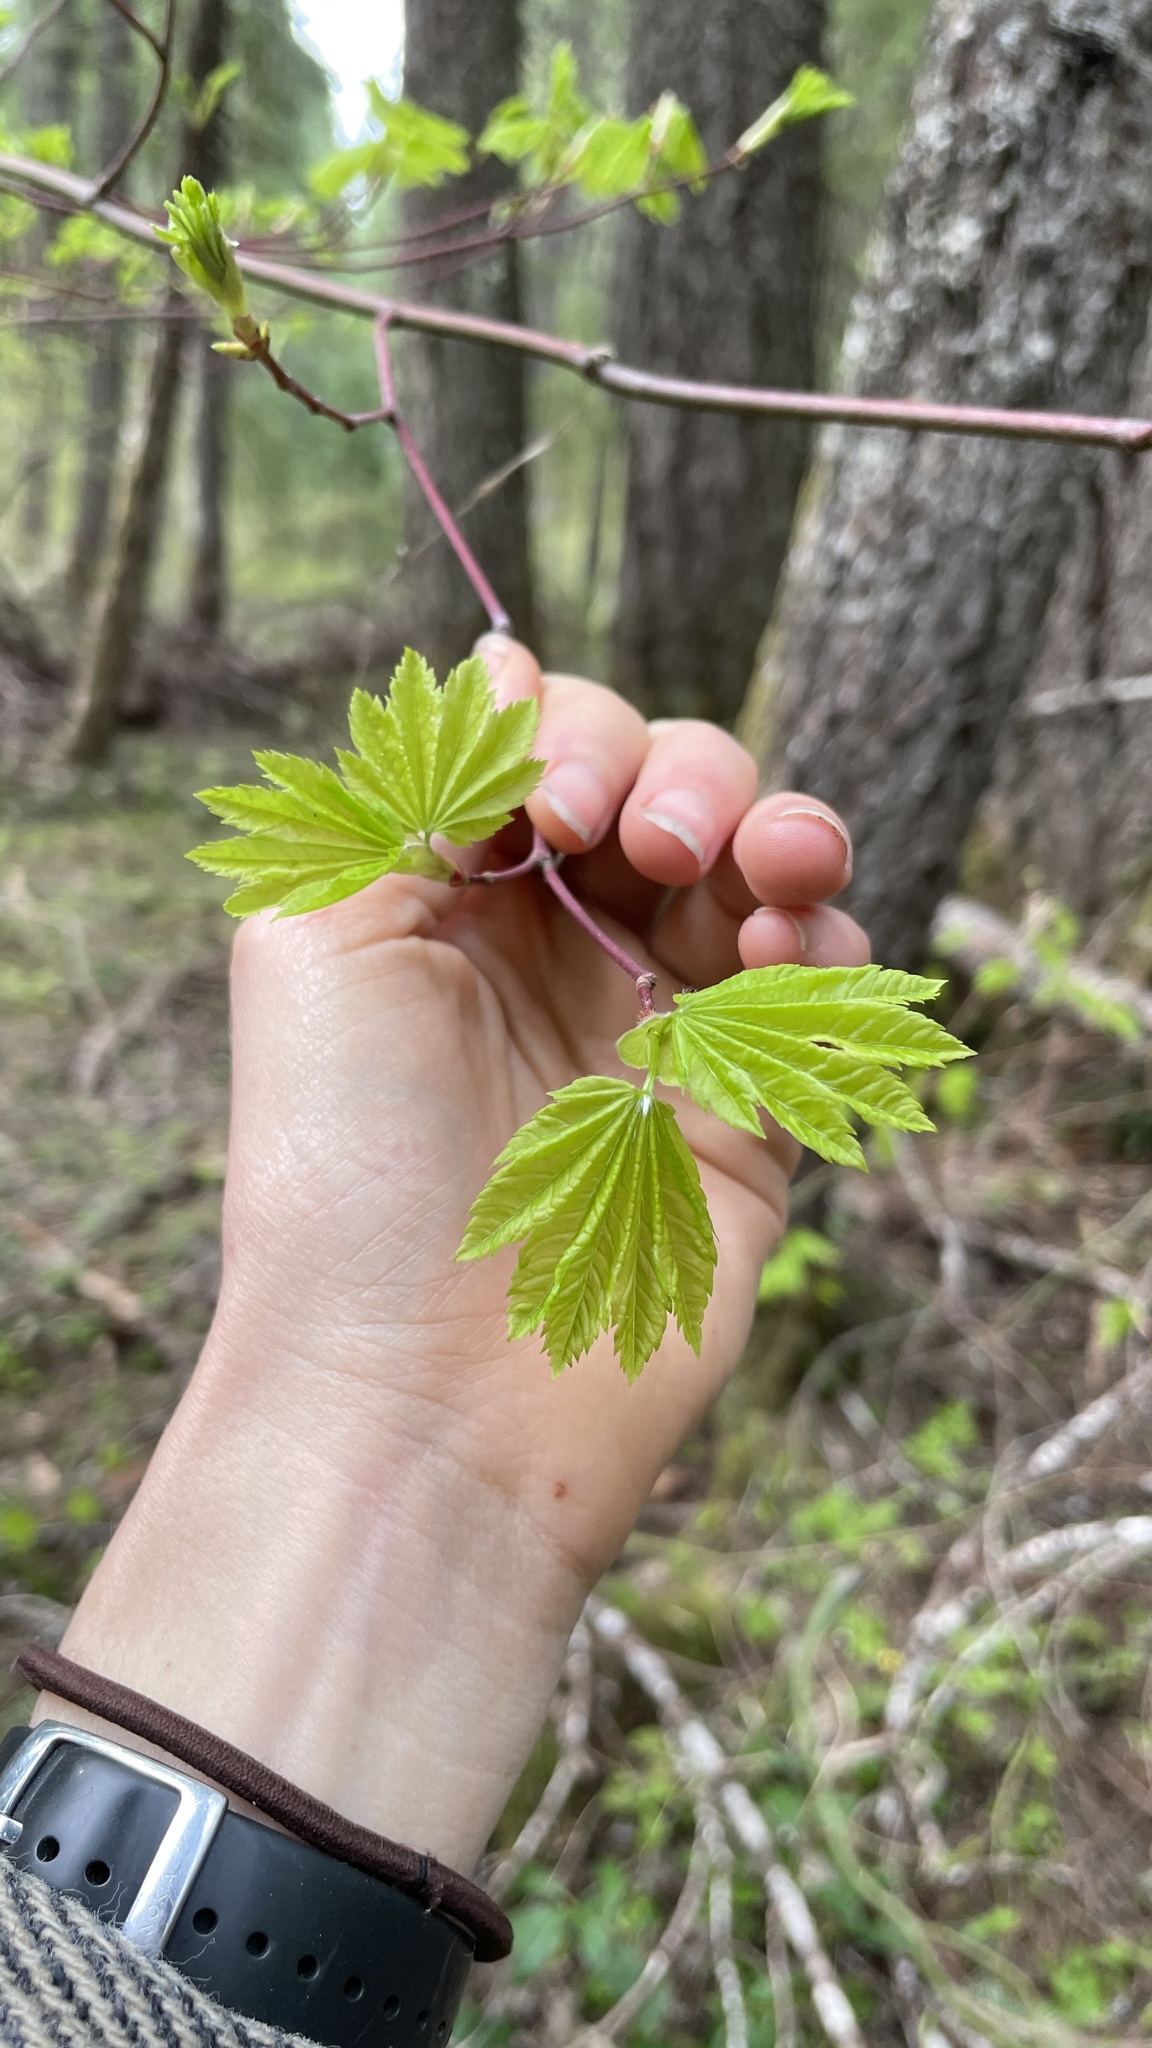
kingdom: Plantae
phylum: Tracheophyta
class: Magnoliopsida
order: Sapindales
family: Sapindaceae
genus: Acer
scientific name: Acer circinatum
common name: Vine maple
